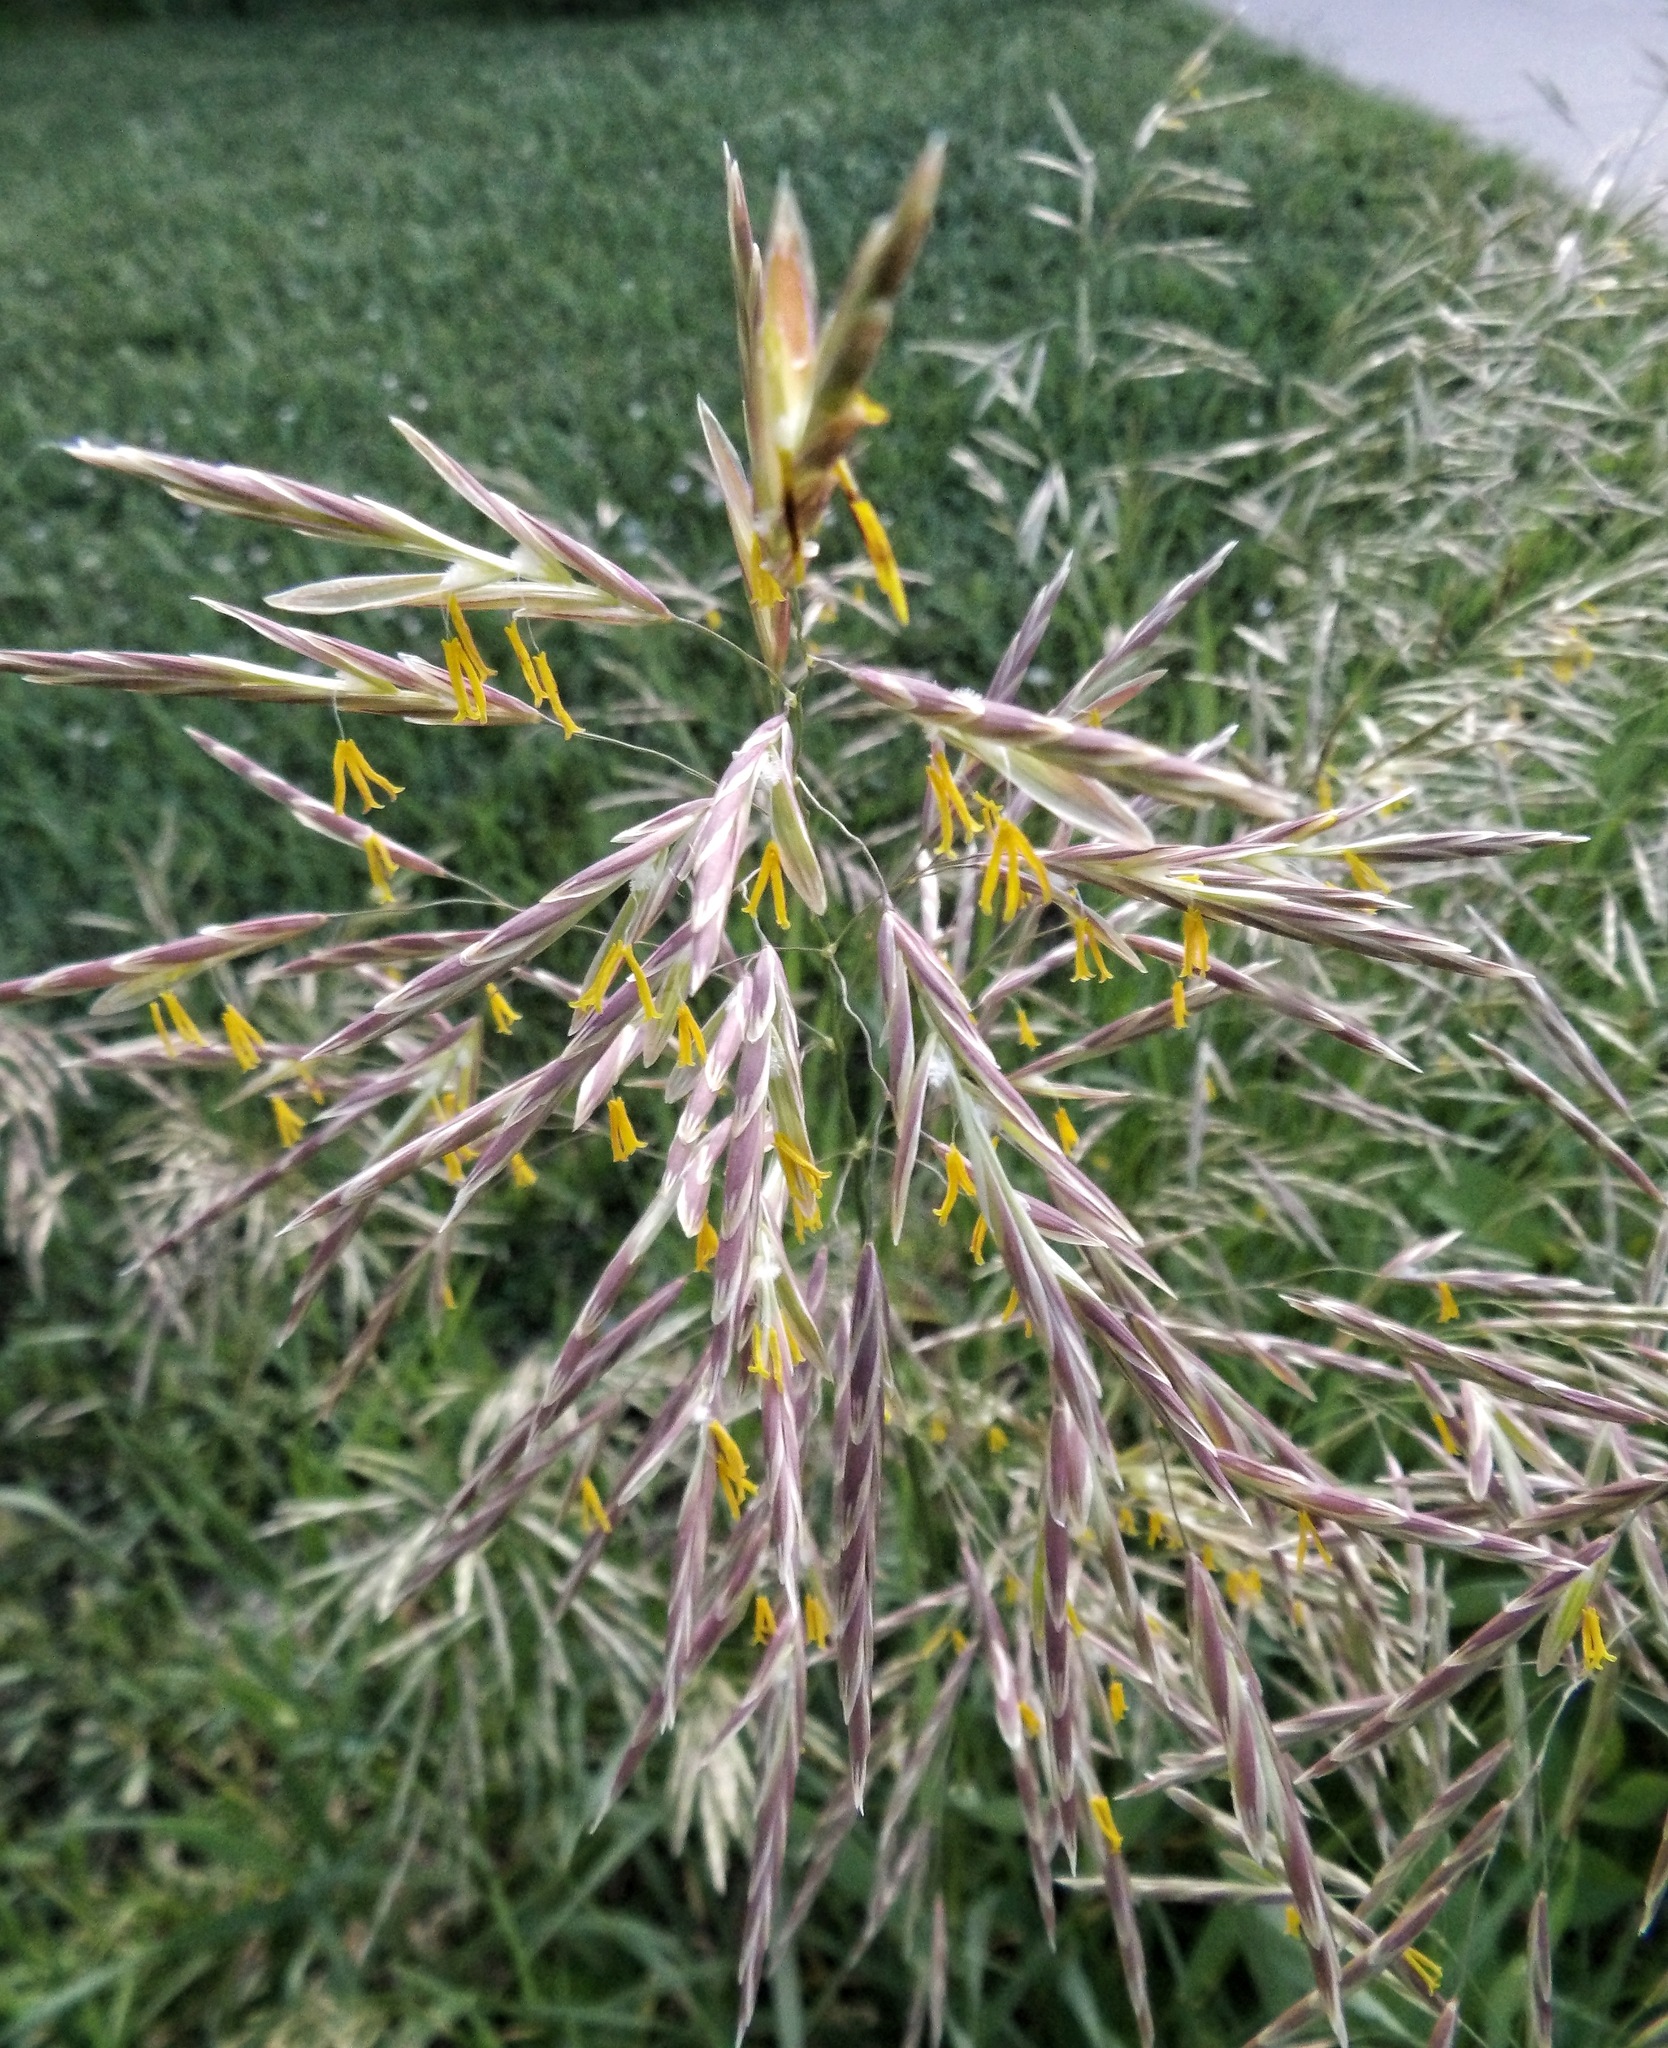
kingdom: Plantae
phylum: Tracheophyta
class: Liliopsida
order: Poales
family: Poaceae
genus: Bromus
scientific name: Bromus inermis
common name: Smooth brome
